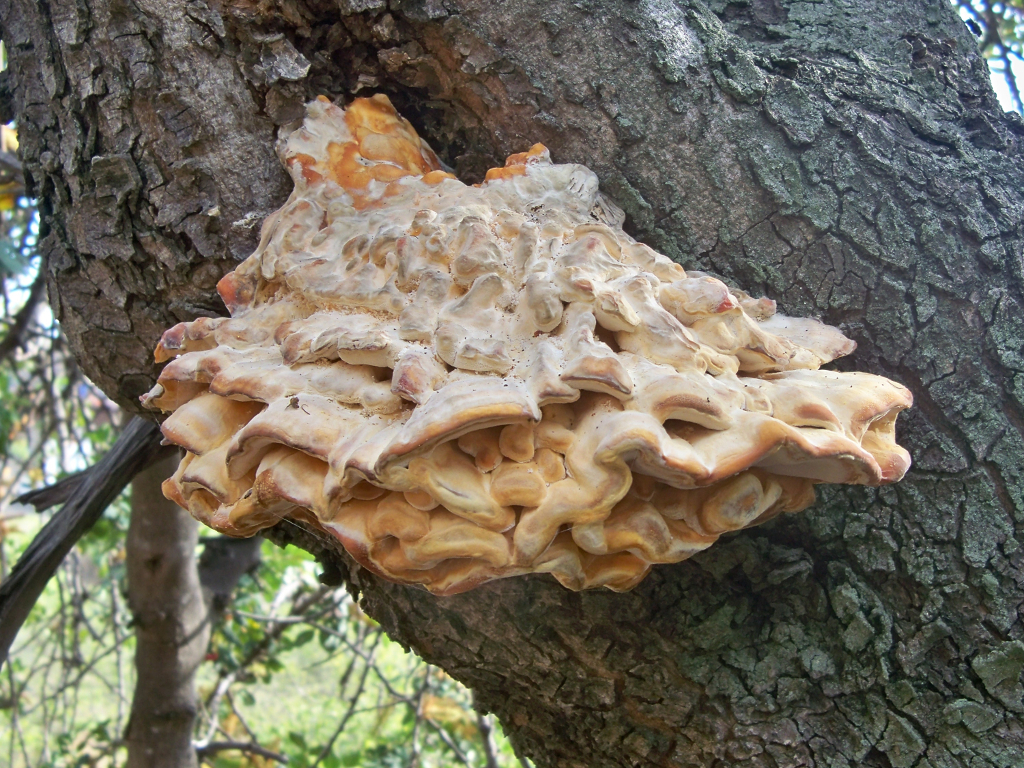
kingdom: Fungi
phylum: Basidiomycota
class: Agaricomycetes
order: Polyporales
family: Laetiporaceae
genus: Laetiporus
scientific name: Laetiporus sulphureus
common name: Chicken of the woods
